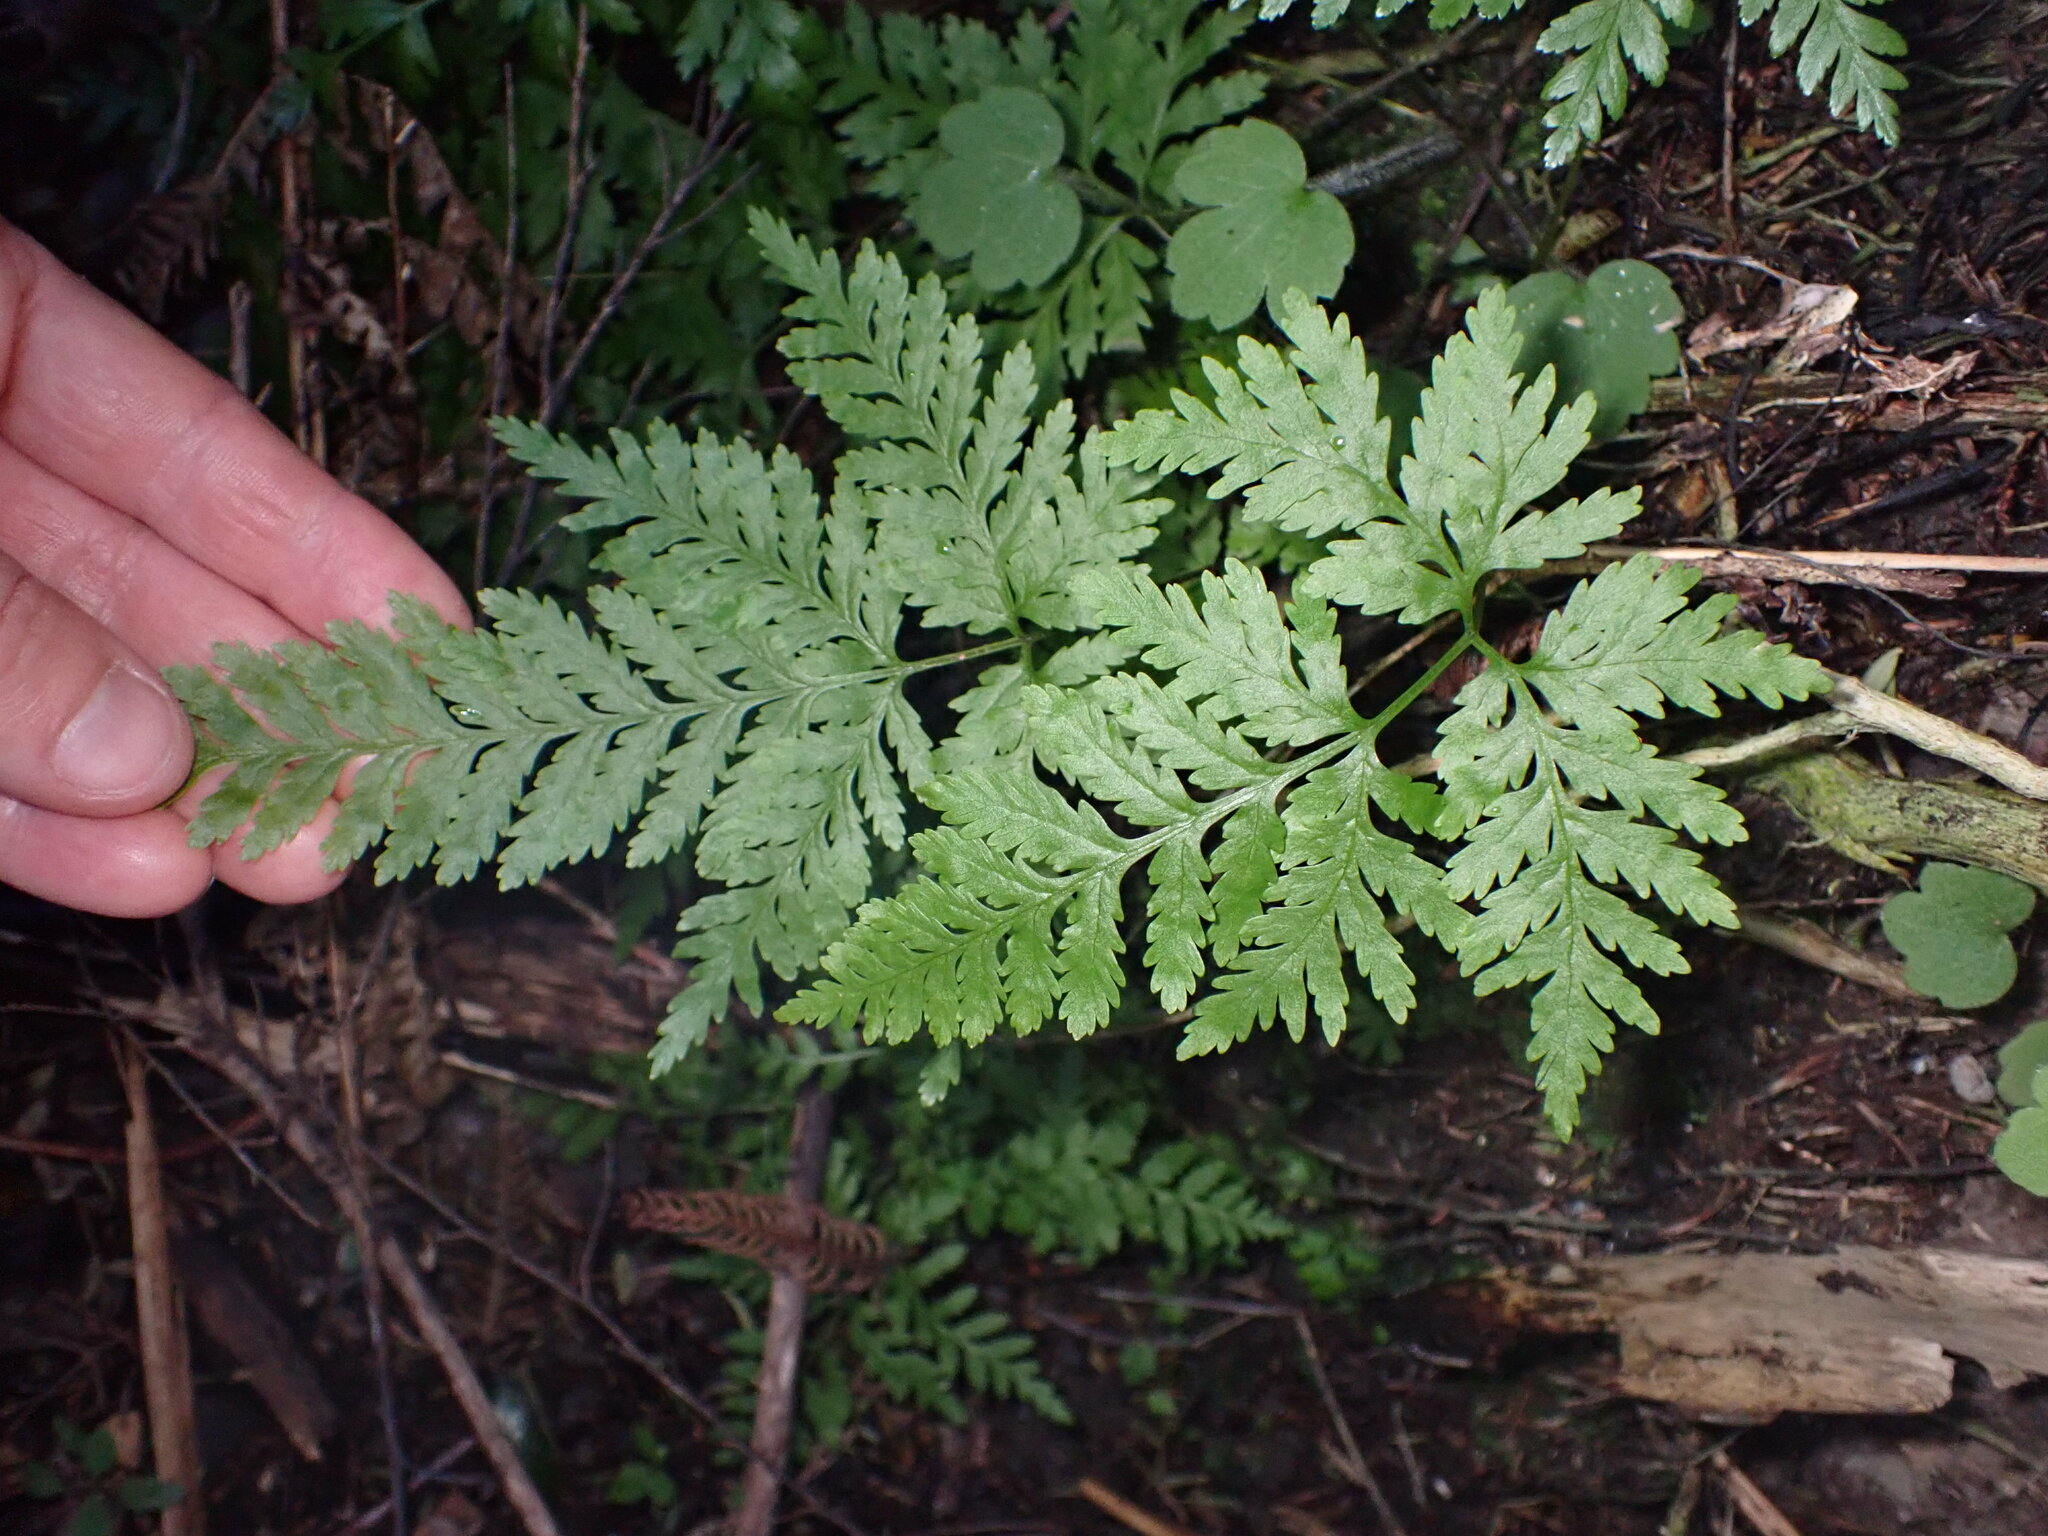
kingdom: Plantae
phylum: Tracheophyta
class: Polypodiopsida
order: Polypodiales
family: Pteridaceae
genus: Pteris
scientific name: Pteris tremula
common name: Australian brake
